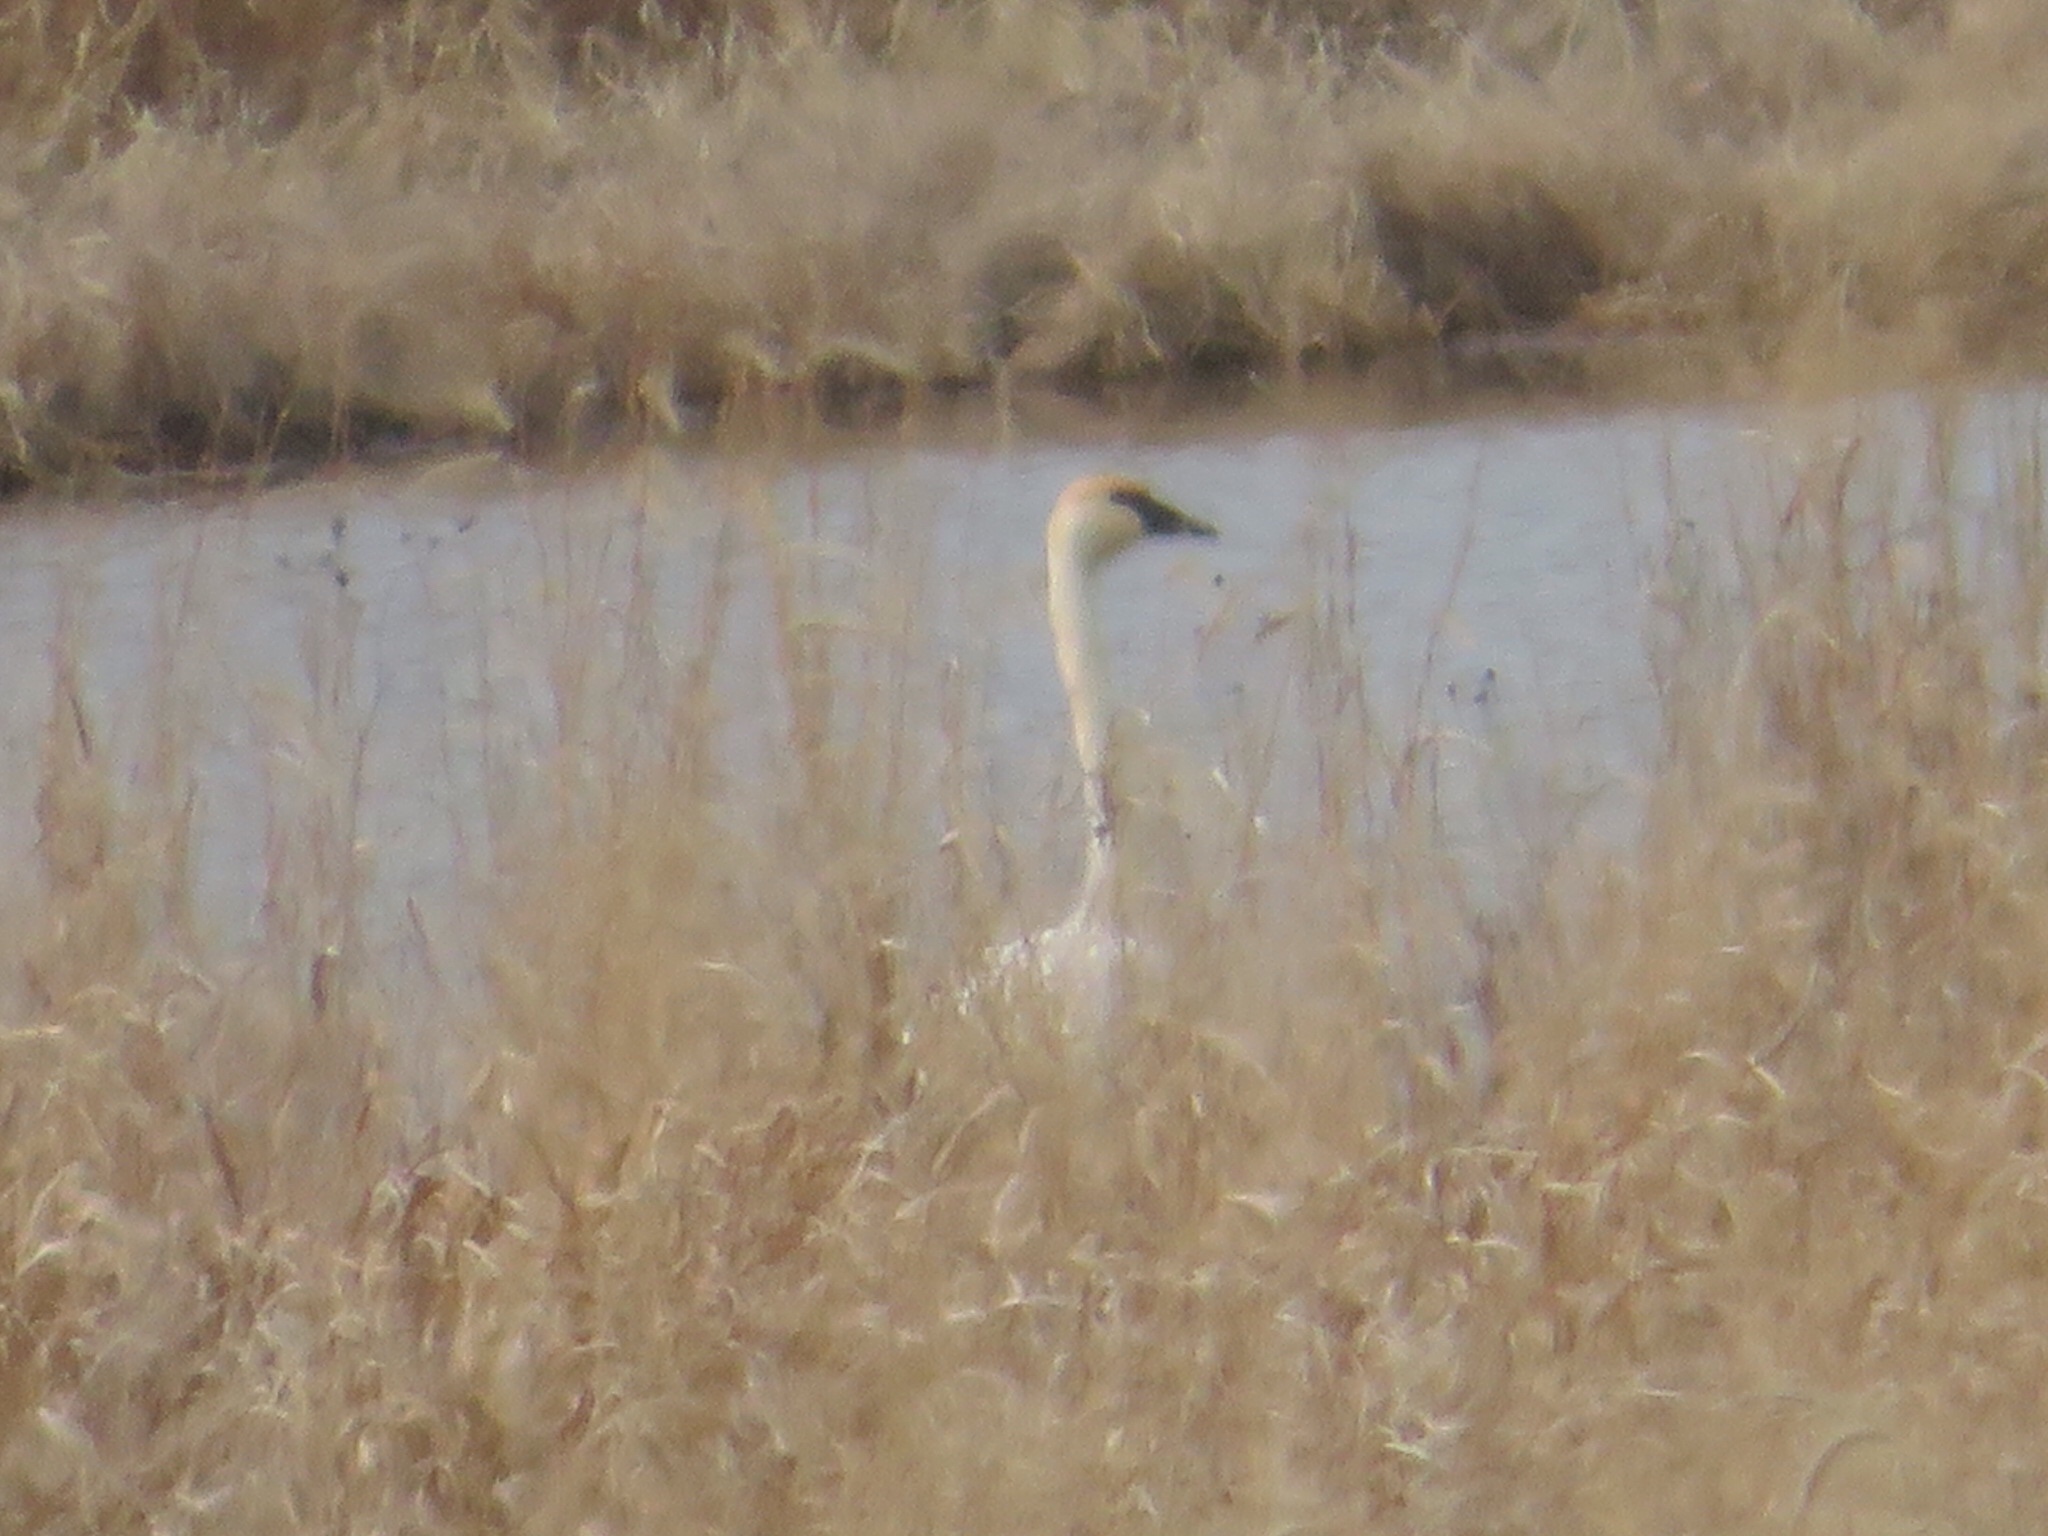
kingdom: Animalia
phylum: Chordata
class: Aves
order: Anseriformes
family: Anatidae
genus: Cygnus
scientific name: Cygnus buccinator
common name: Trumpeter swan
